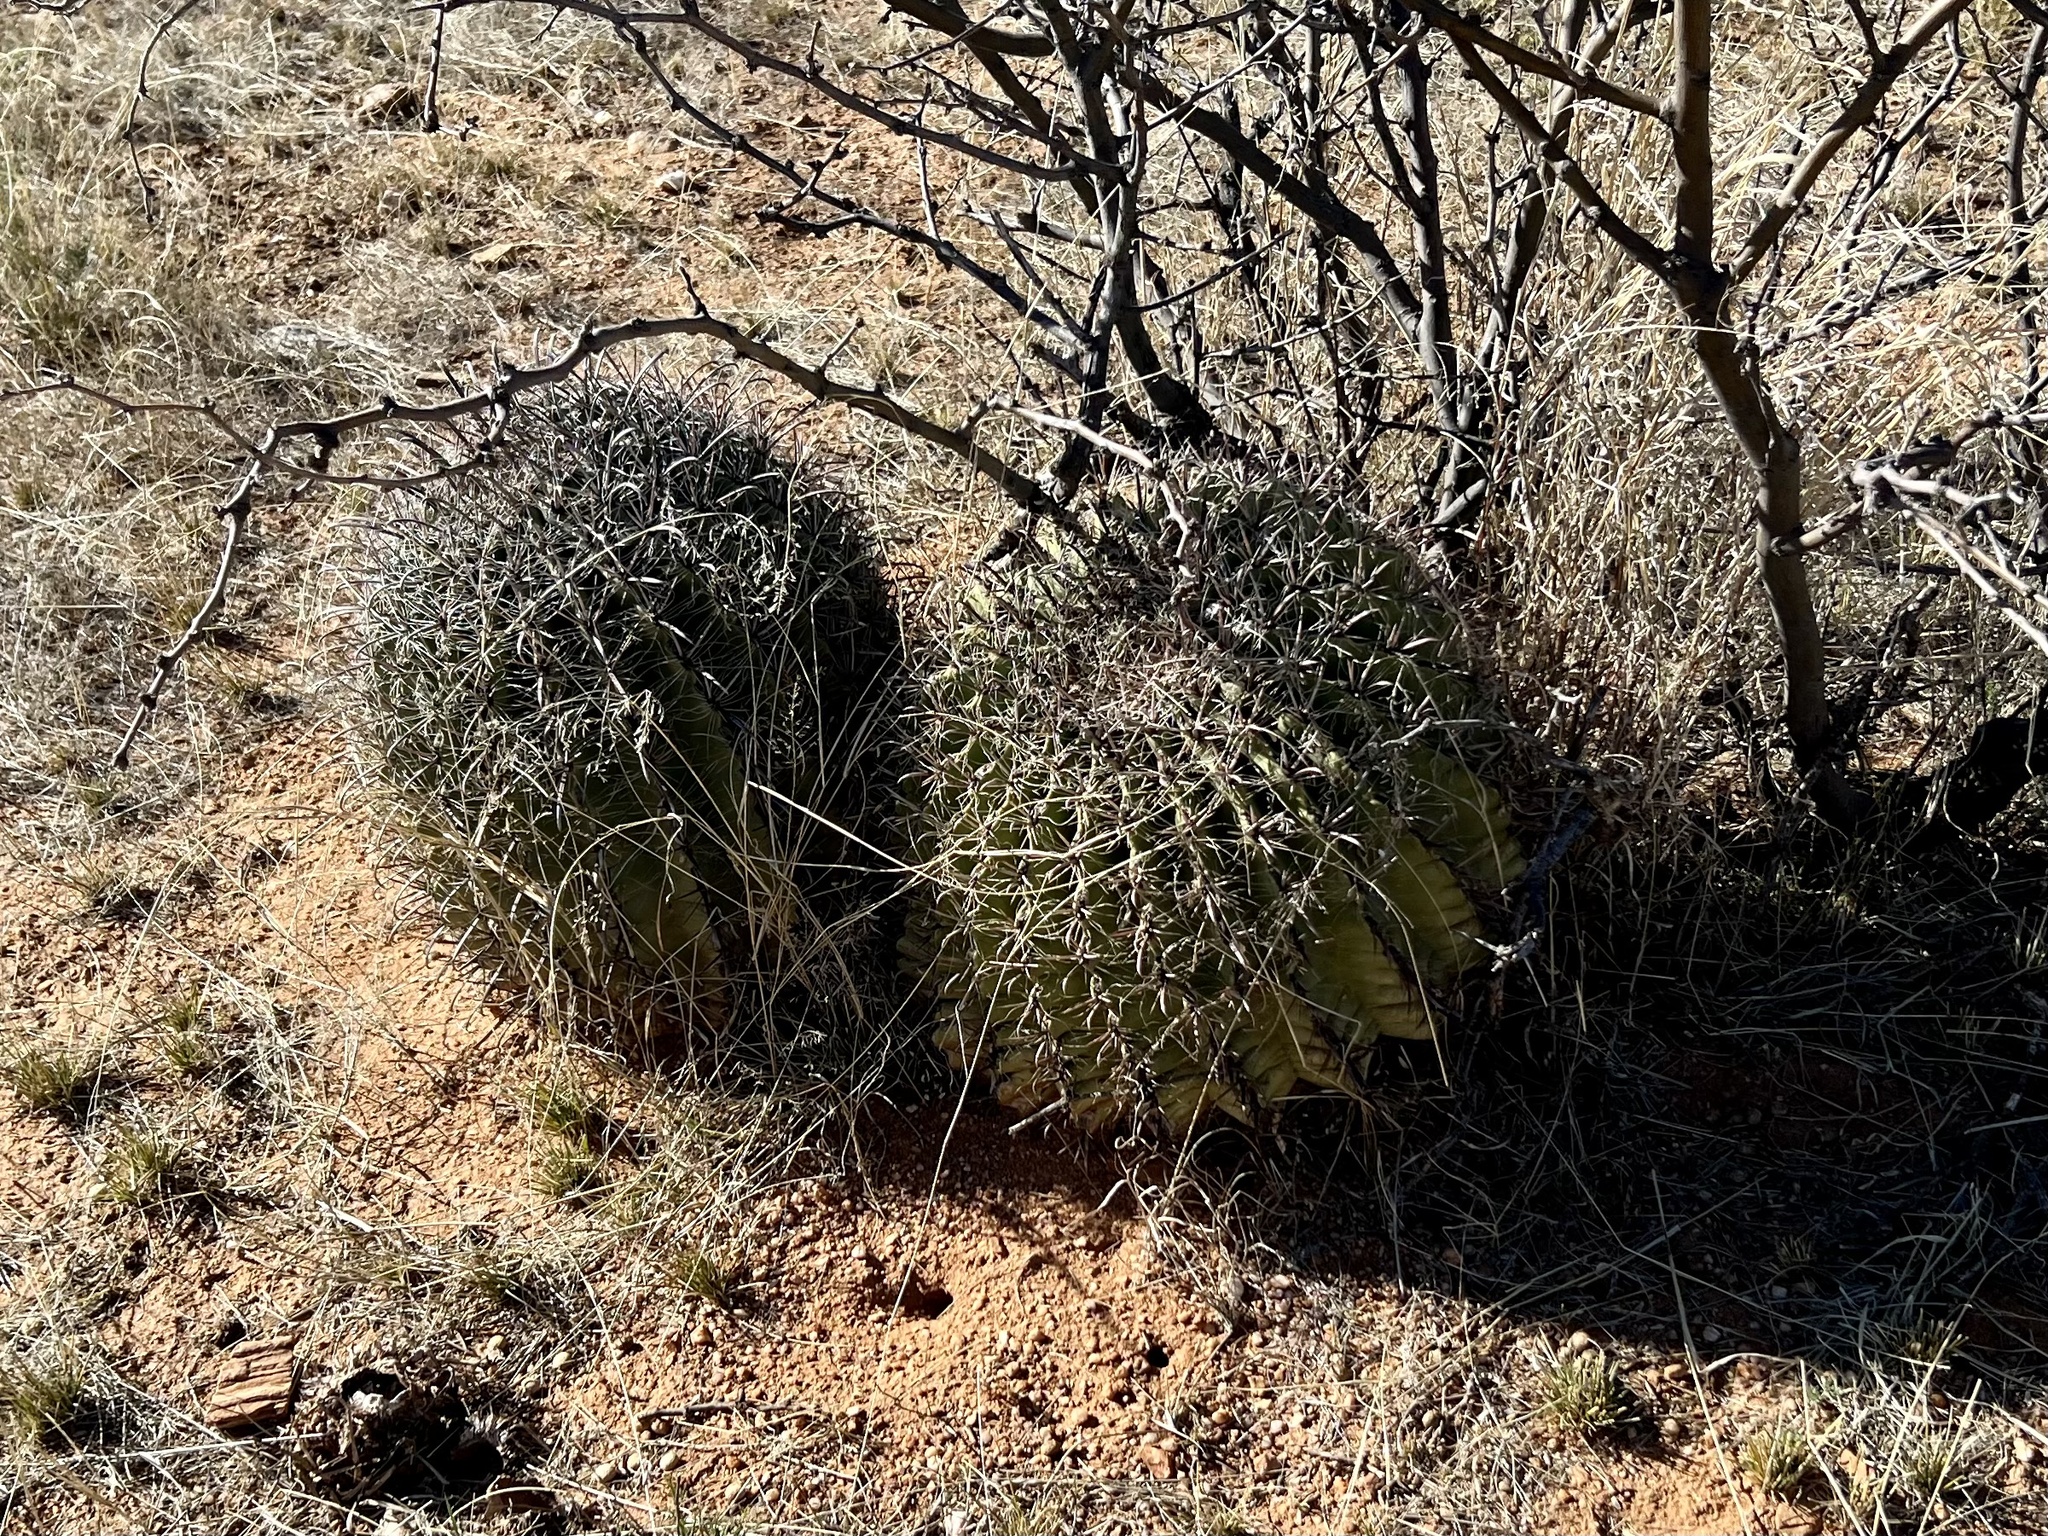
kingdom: Plantae
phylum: Tracheophyta
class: Magnoliopsida
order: Caryophyllales
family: Cactaceae
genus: Ferocactus
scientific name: Ferocactus wislizeni
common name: Candy barrel cactus
